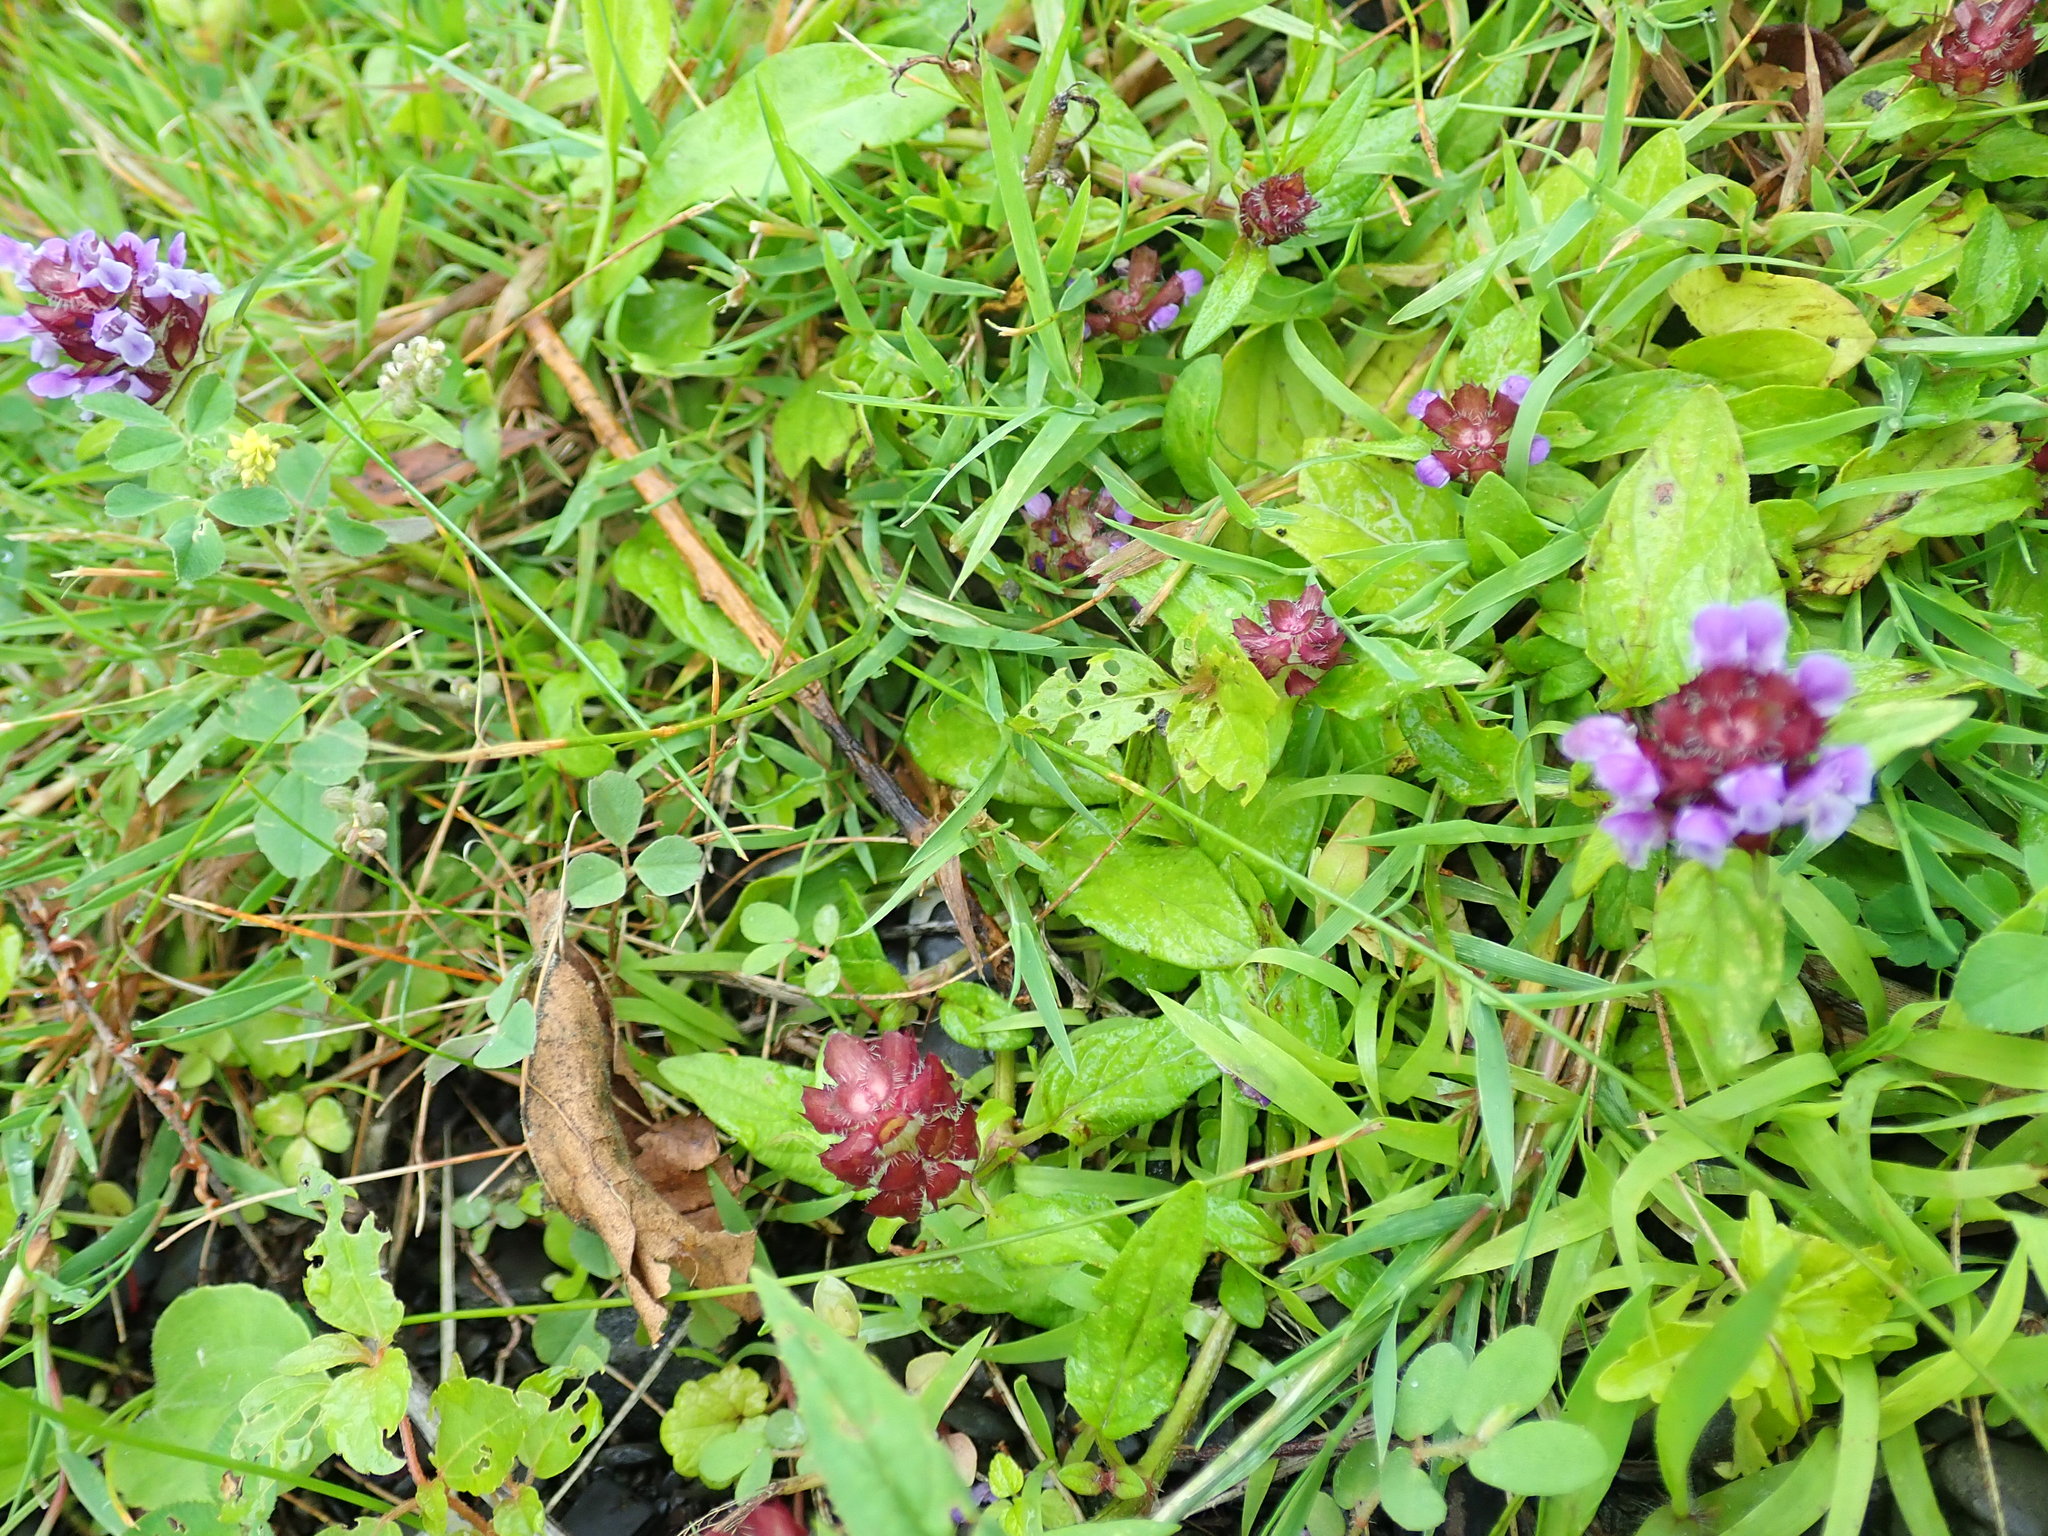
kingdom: Plantae
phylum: Tracheophyta
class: Magnoliopsida
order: Lamiales
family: Lamiaceae
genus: Prunella
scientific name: Prunella vulgaris
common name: Heal-all
